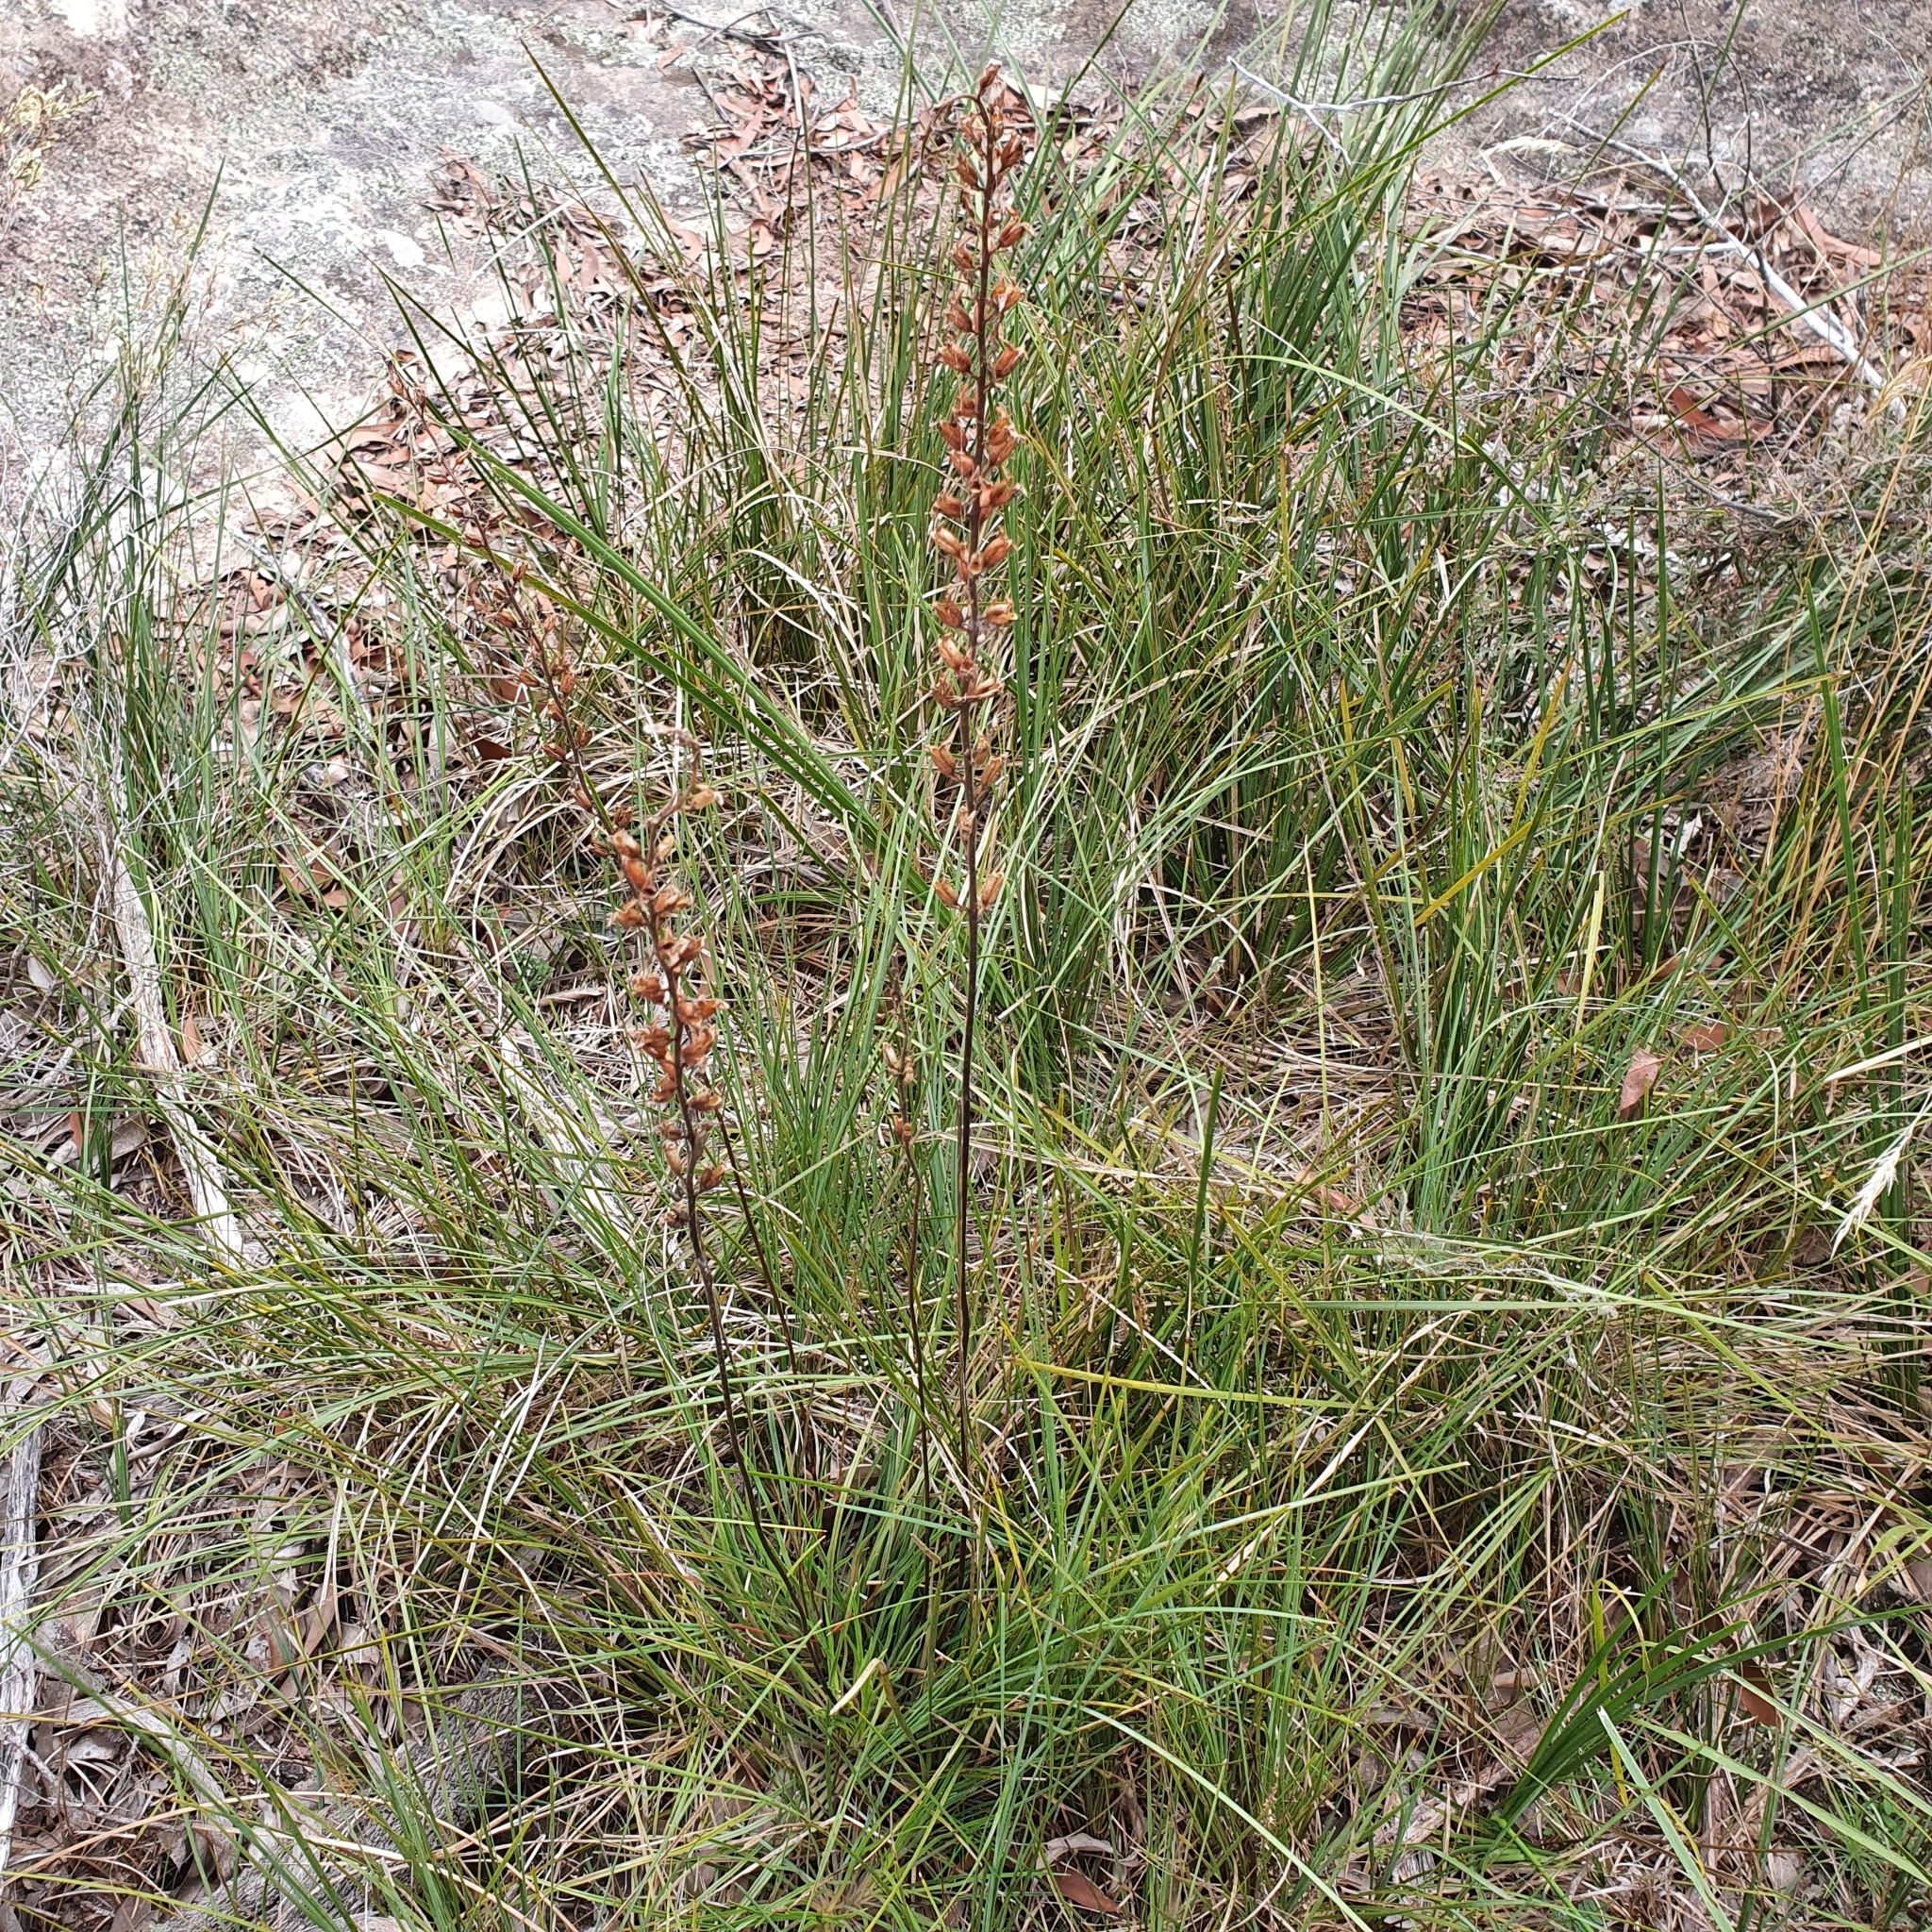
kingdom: Plantae
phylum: Tracheophyta
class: Magnoliopsida
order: Asterales
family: Stylidiaceae
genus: Stylidium
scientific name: Stylidium productum
